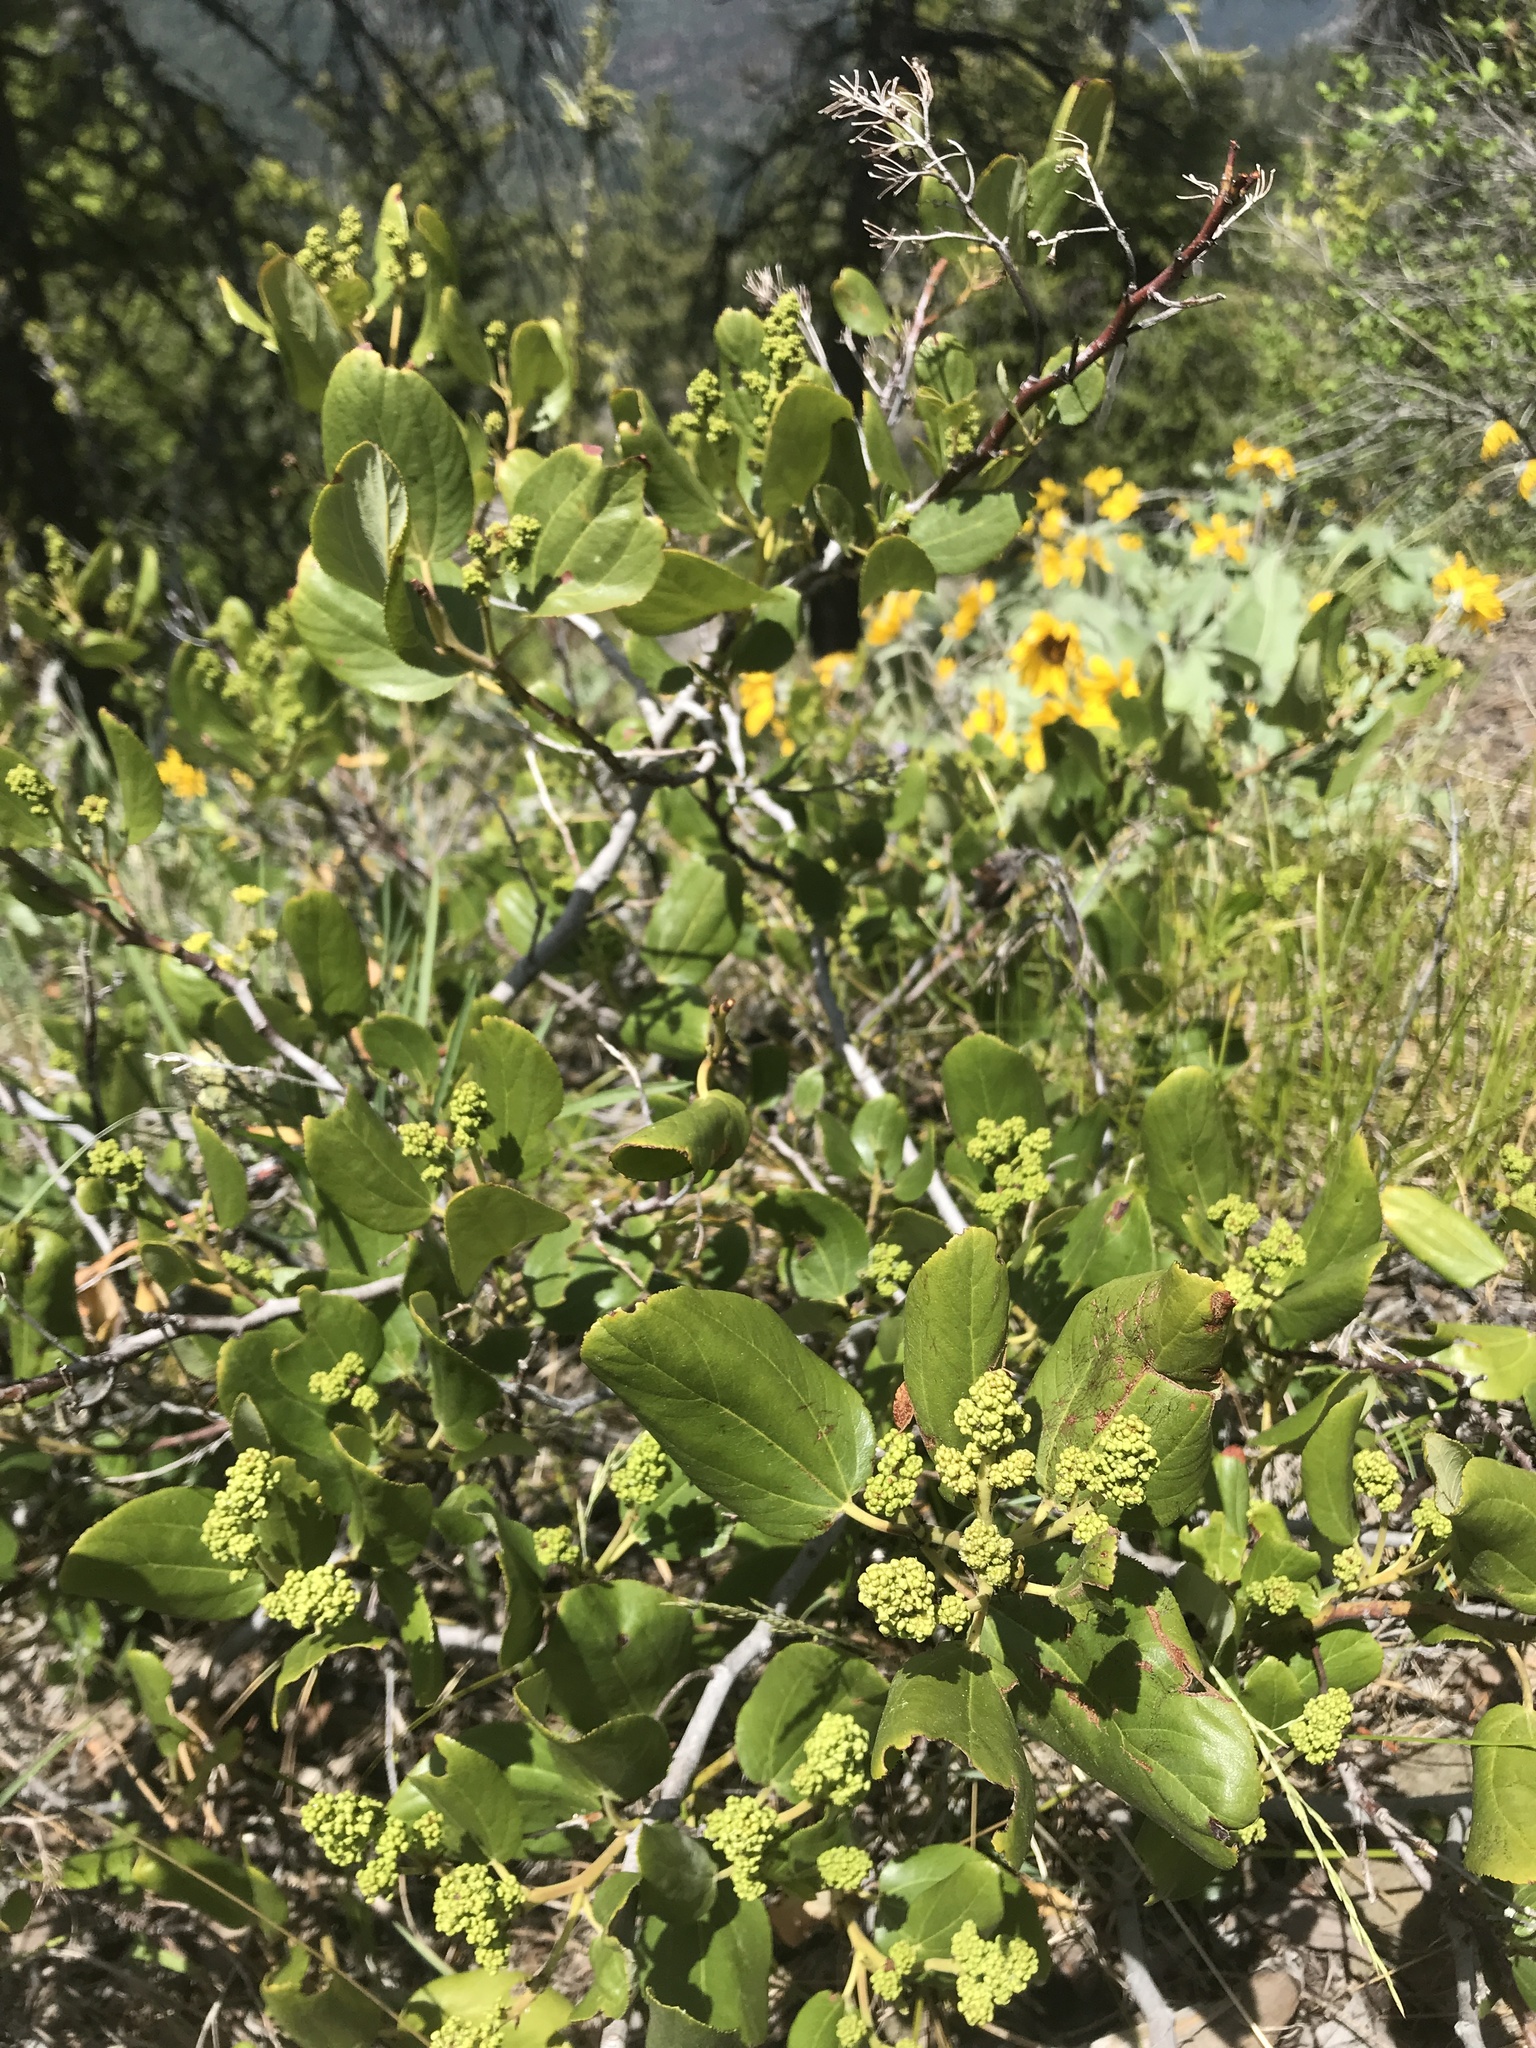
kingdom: Plantae
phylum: Tracheophyta
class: Magnoliopsida
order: Rosales
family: Rhamnaceae
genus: Ceanothus
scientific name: Ceanothus velutinus
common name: Snowbrush
